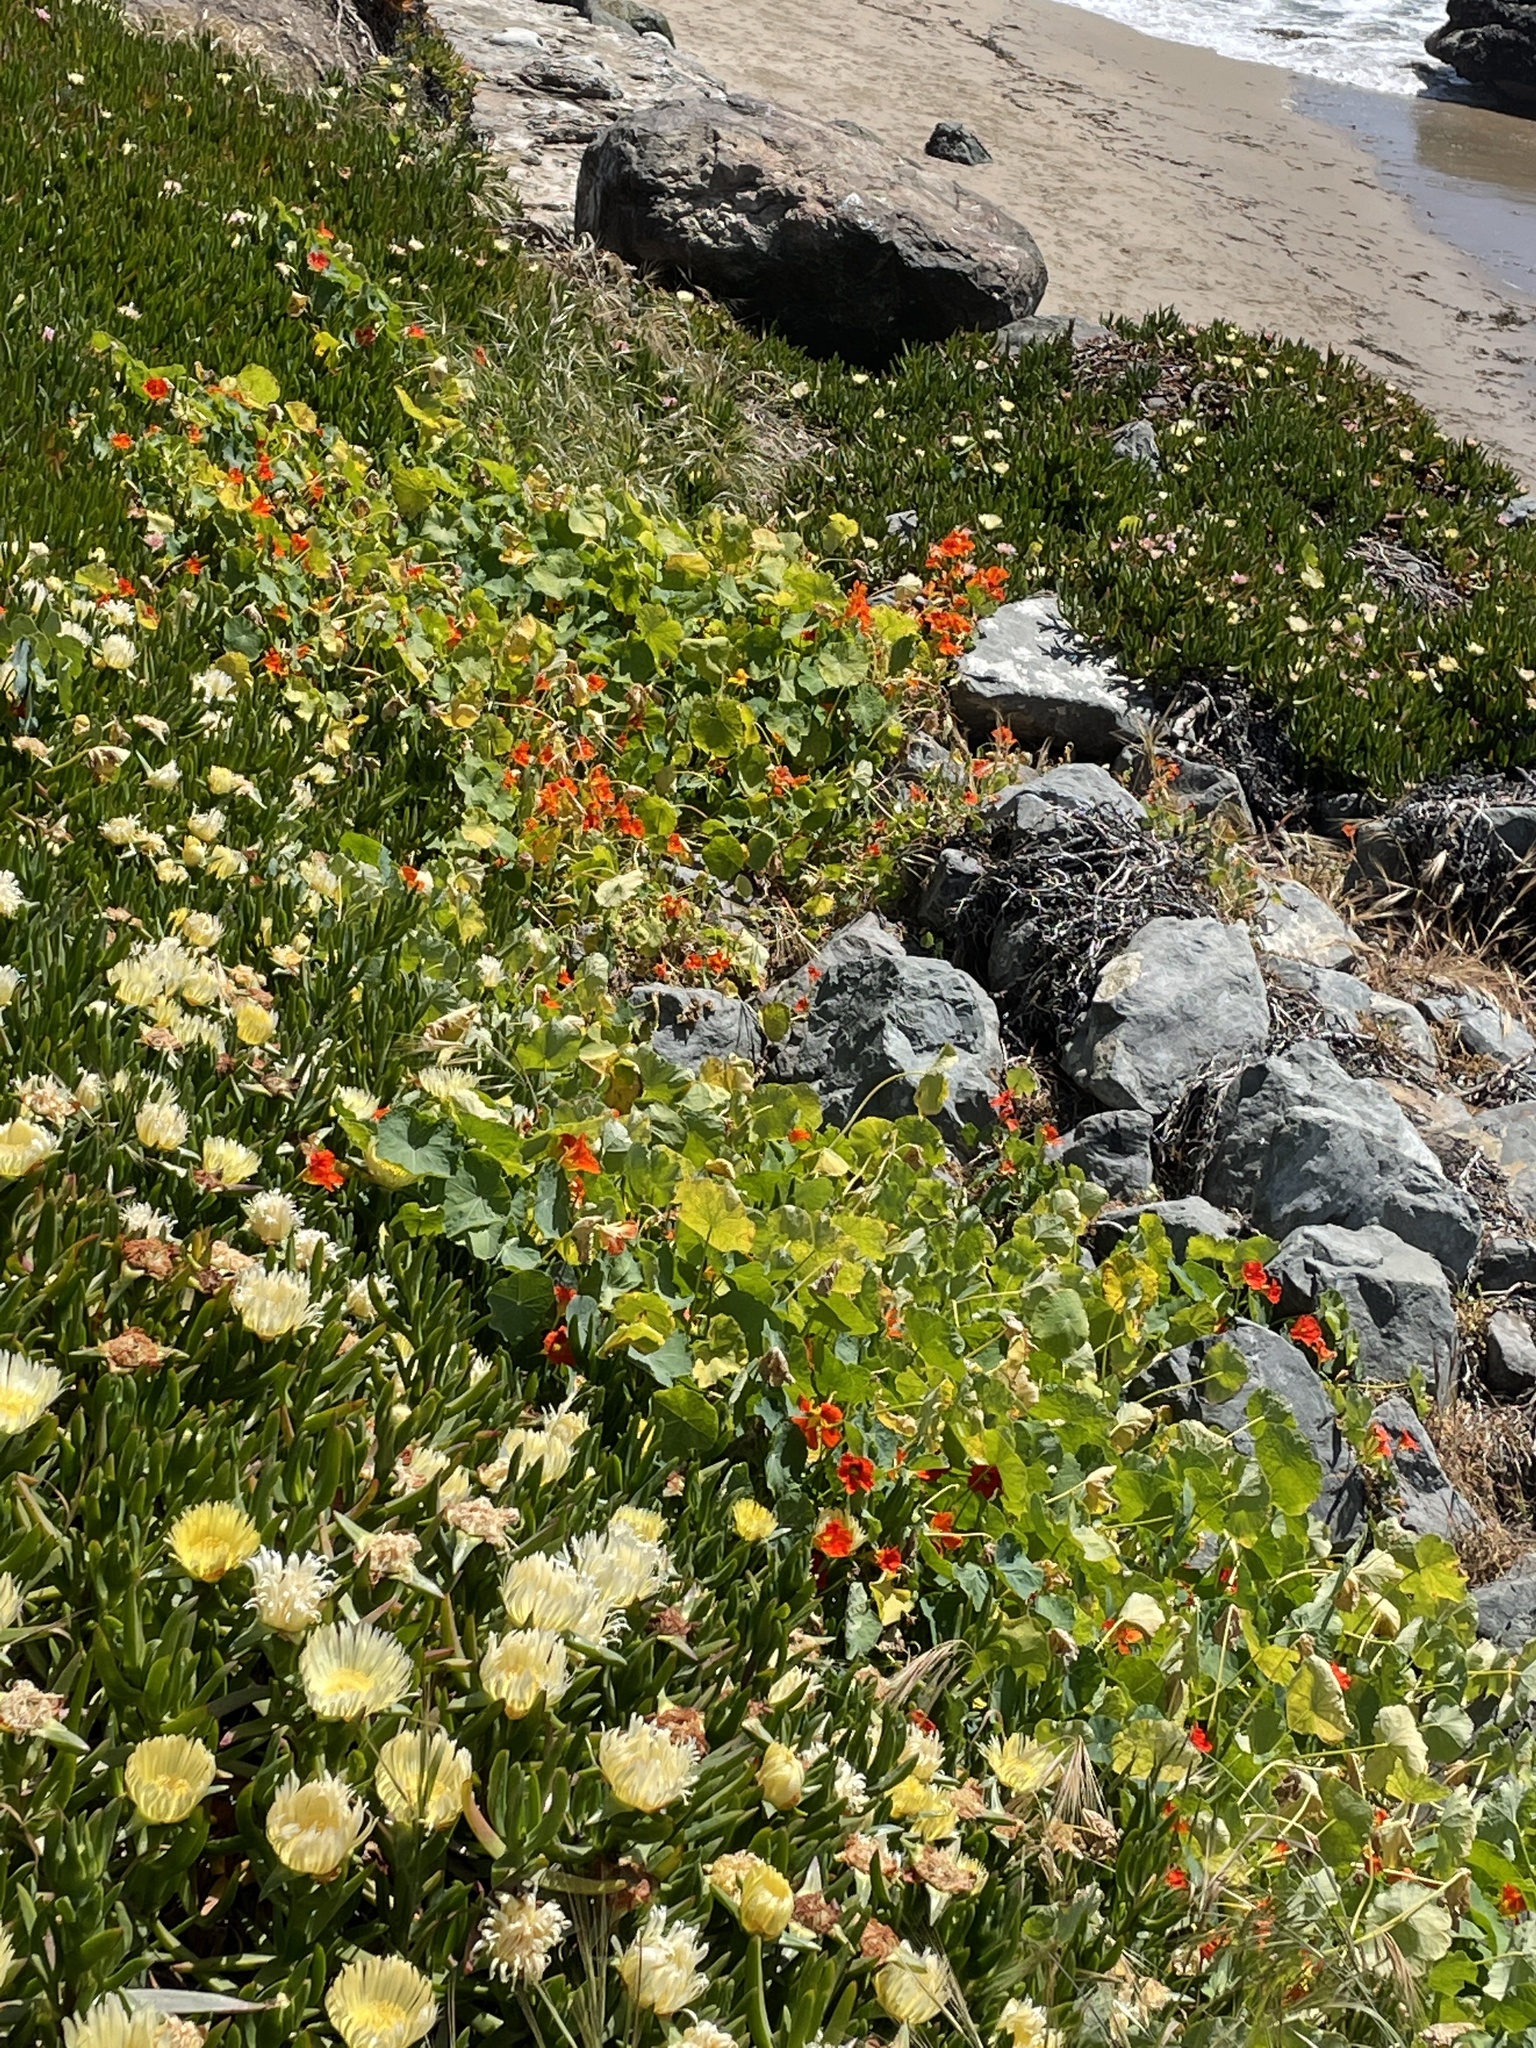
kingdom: Plantae
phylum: Tracheophyta
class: Magnoliopsida
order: Brassicales
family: Tropaeolaceae
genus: Tropaeolum
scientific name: Tropaeolum majus
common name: Nasturtium
